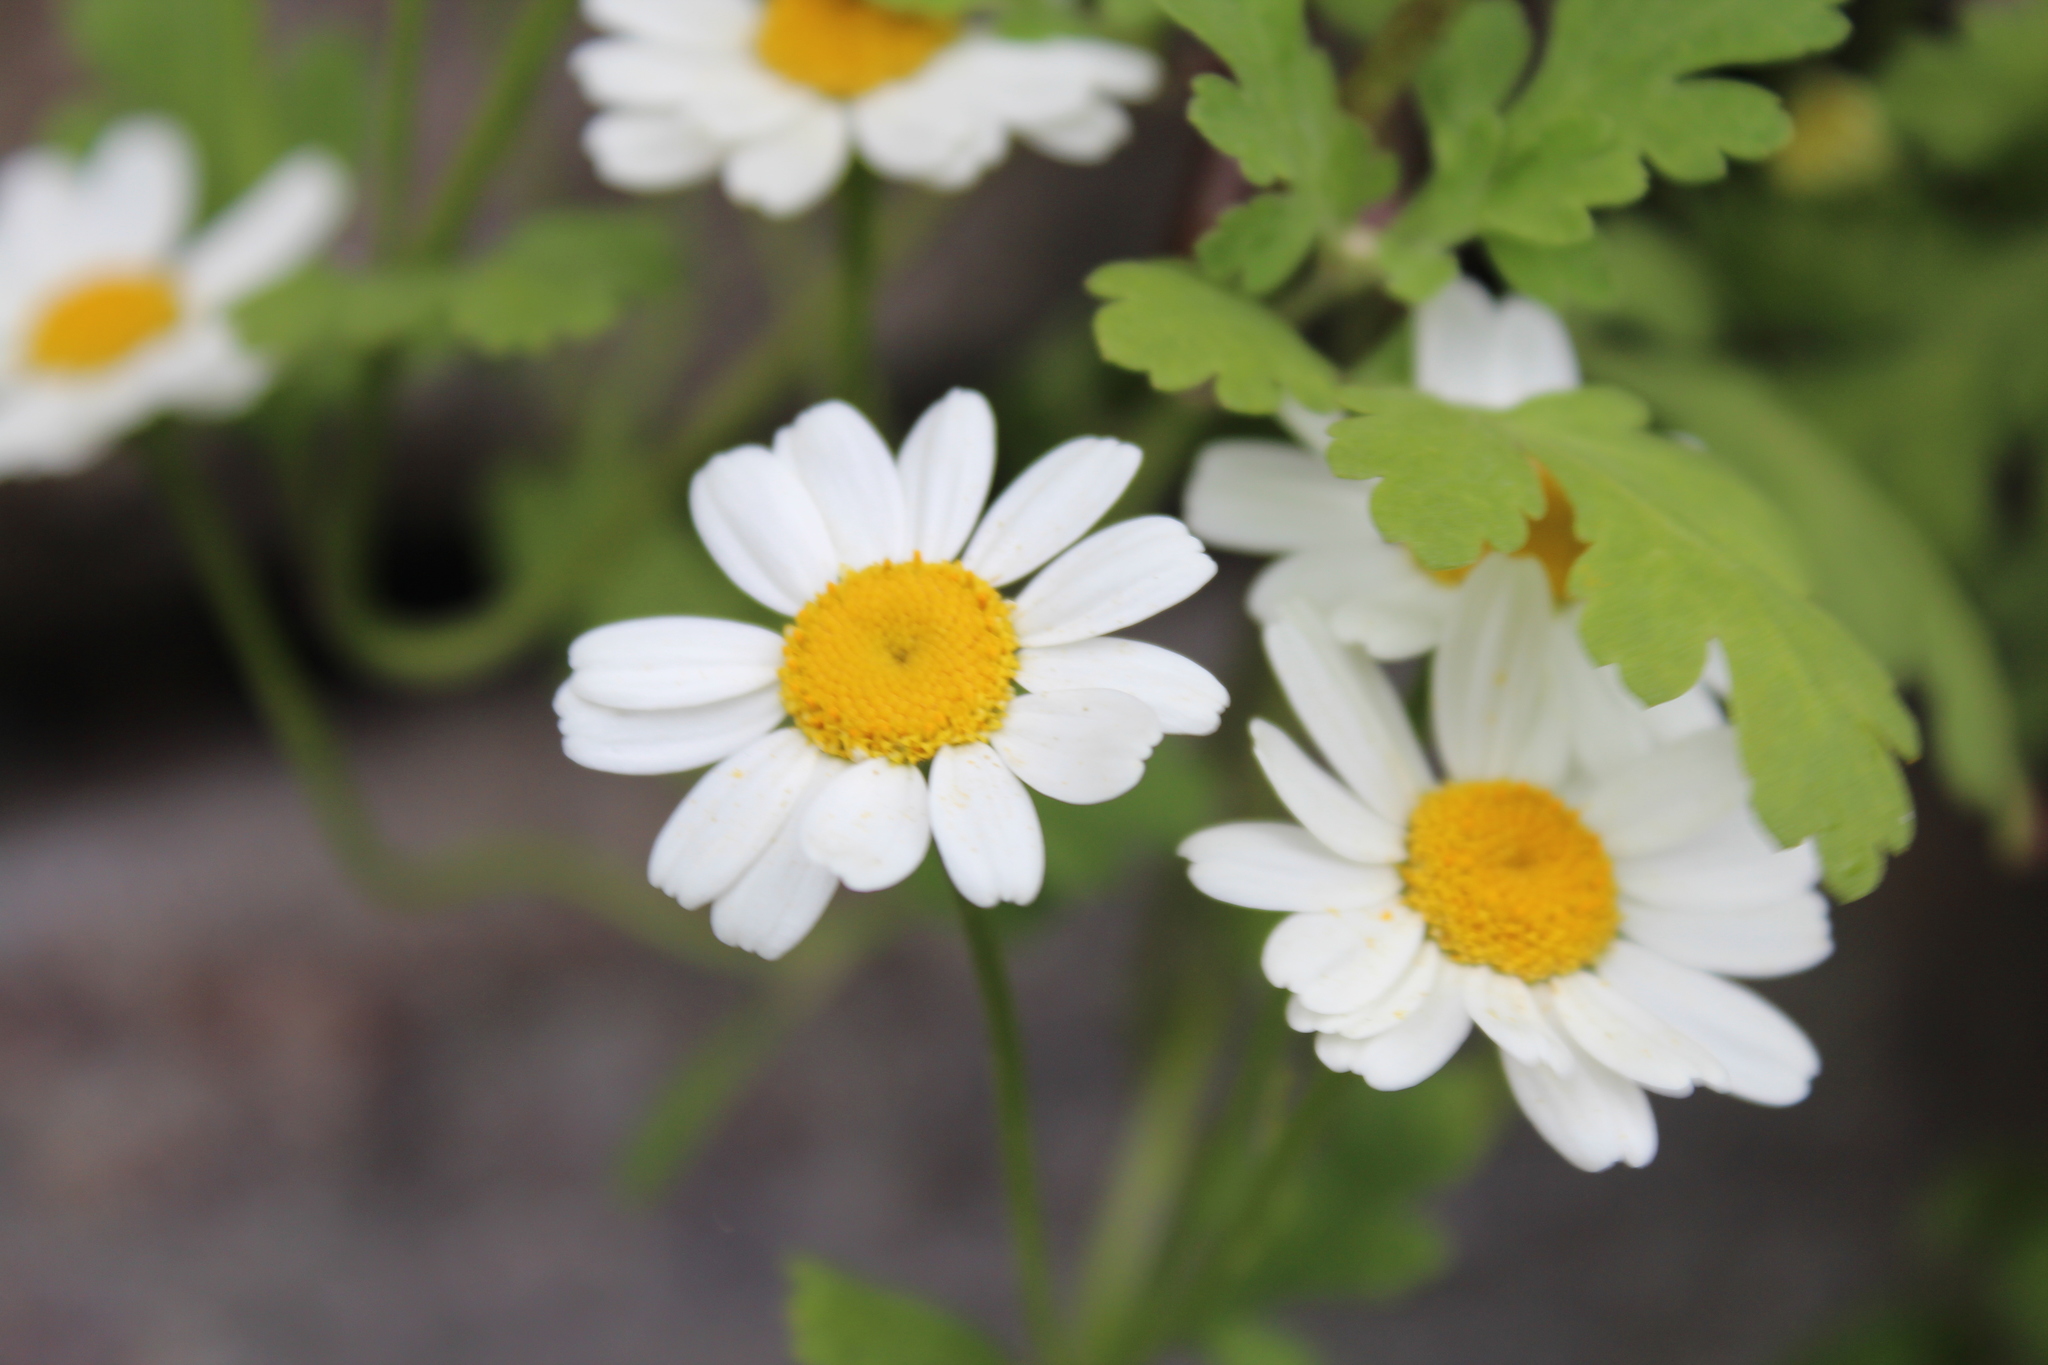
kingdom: Plantae
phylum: Tracheophyta
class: Magnoliopsida
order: Asterales
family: Asteraceae
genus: Tanacetum
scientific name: Tanacetum parthenium
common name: Feverfew
